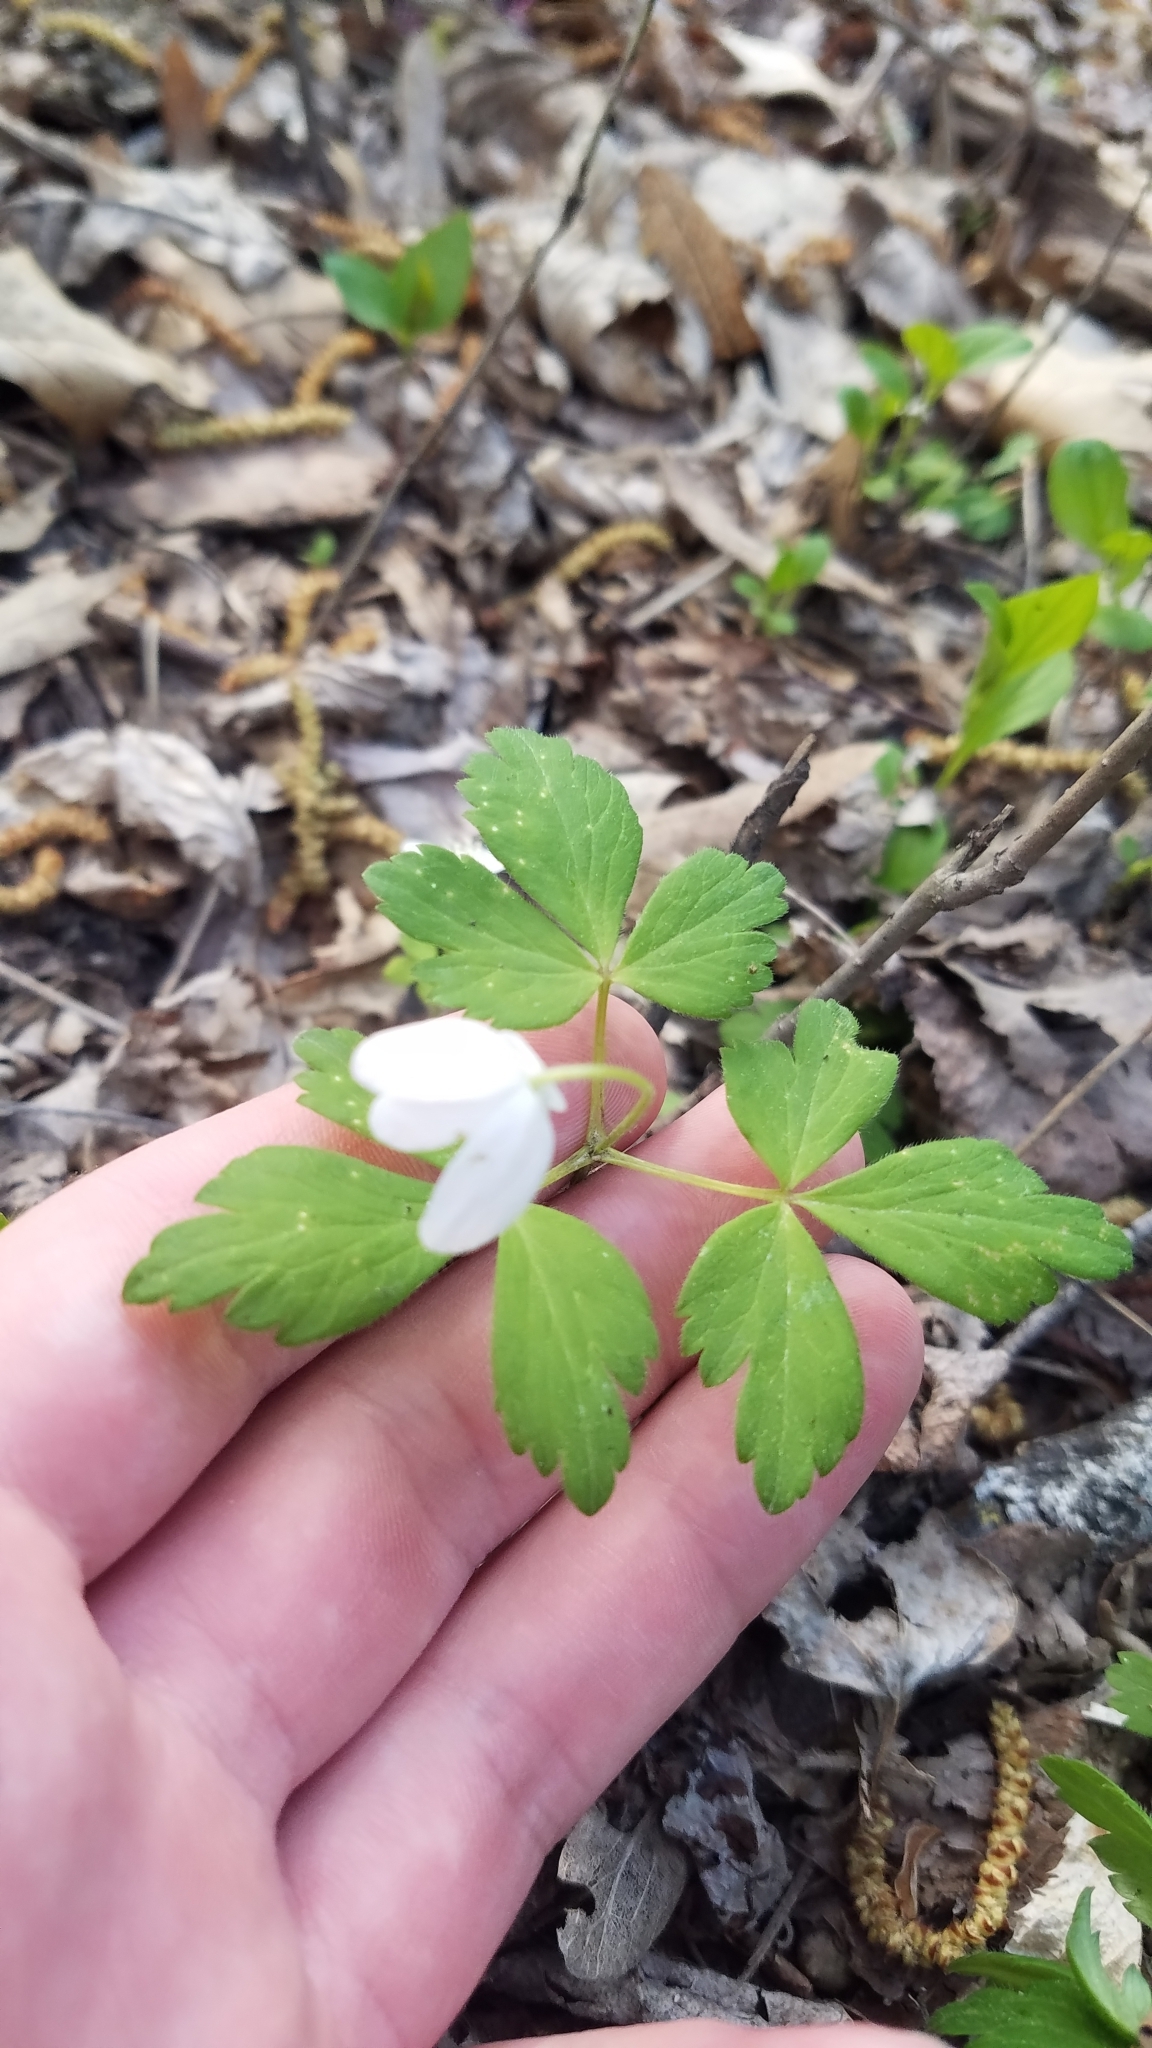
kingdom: Plantae
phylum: Tracheophyta
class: Magnoliopsida
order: Ranunculales
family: Ranunculaceae
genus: Anemone
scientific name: Anemone quinquefolia
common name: Wood anemone
